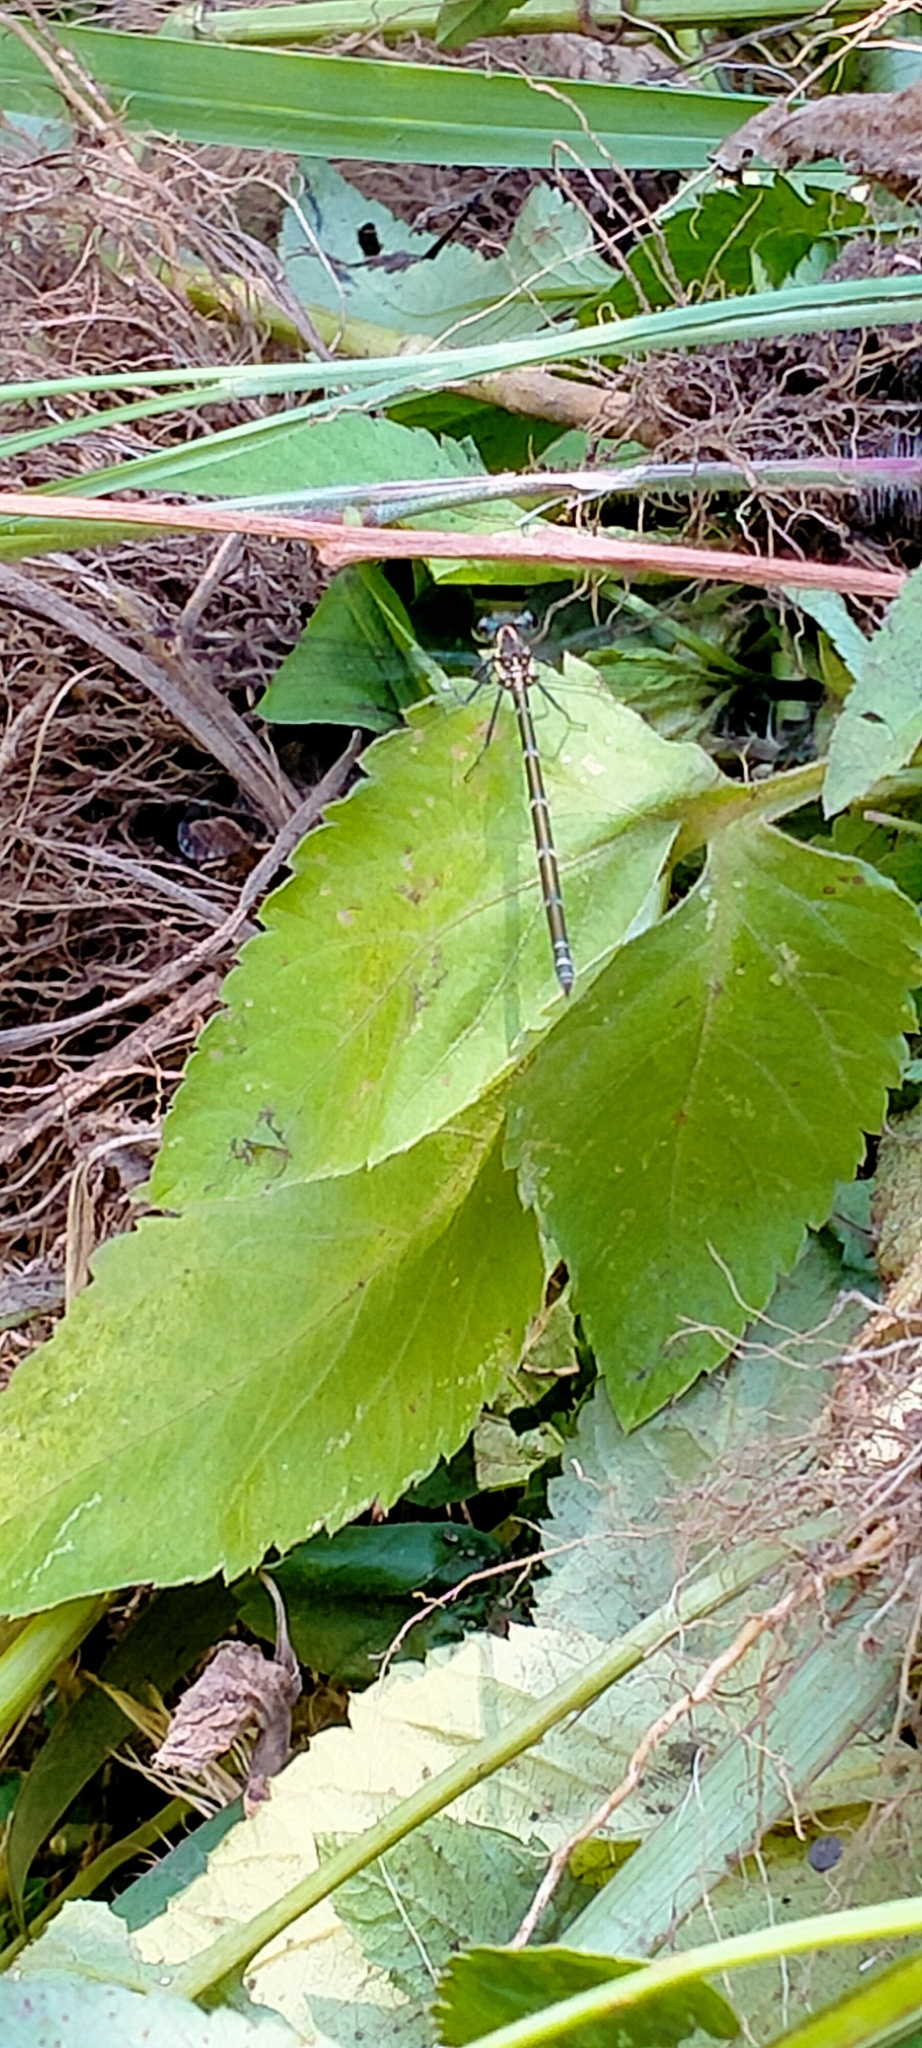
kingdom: Animalia
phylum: Arthropoda
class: Insecta
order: Odonata
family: Argiolestidae
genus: Austroargiolestes
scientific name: Austroargiolestes icteromelas
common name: Common flatwing
